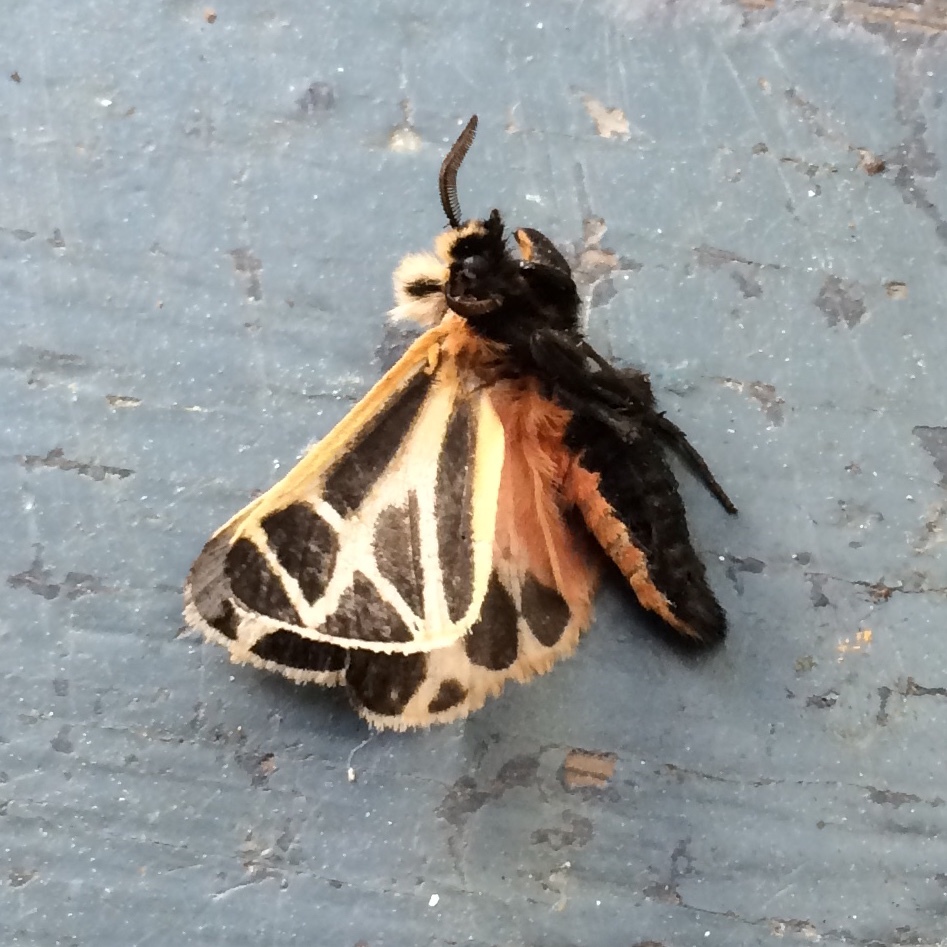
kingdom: Animalia
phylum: Arthropoda
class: Insecta
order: Lepidoptera
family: Erebidae
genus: Apantesis
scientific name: Apantesis nais
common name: Nais tiger moth
